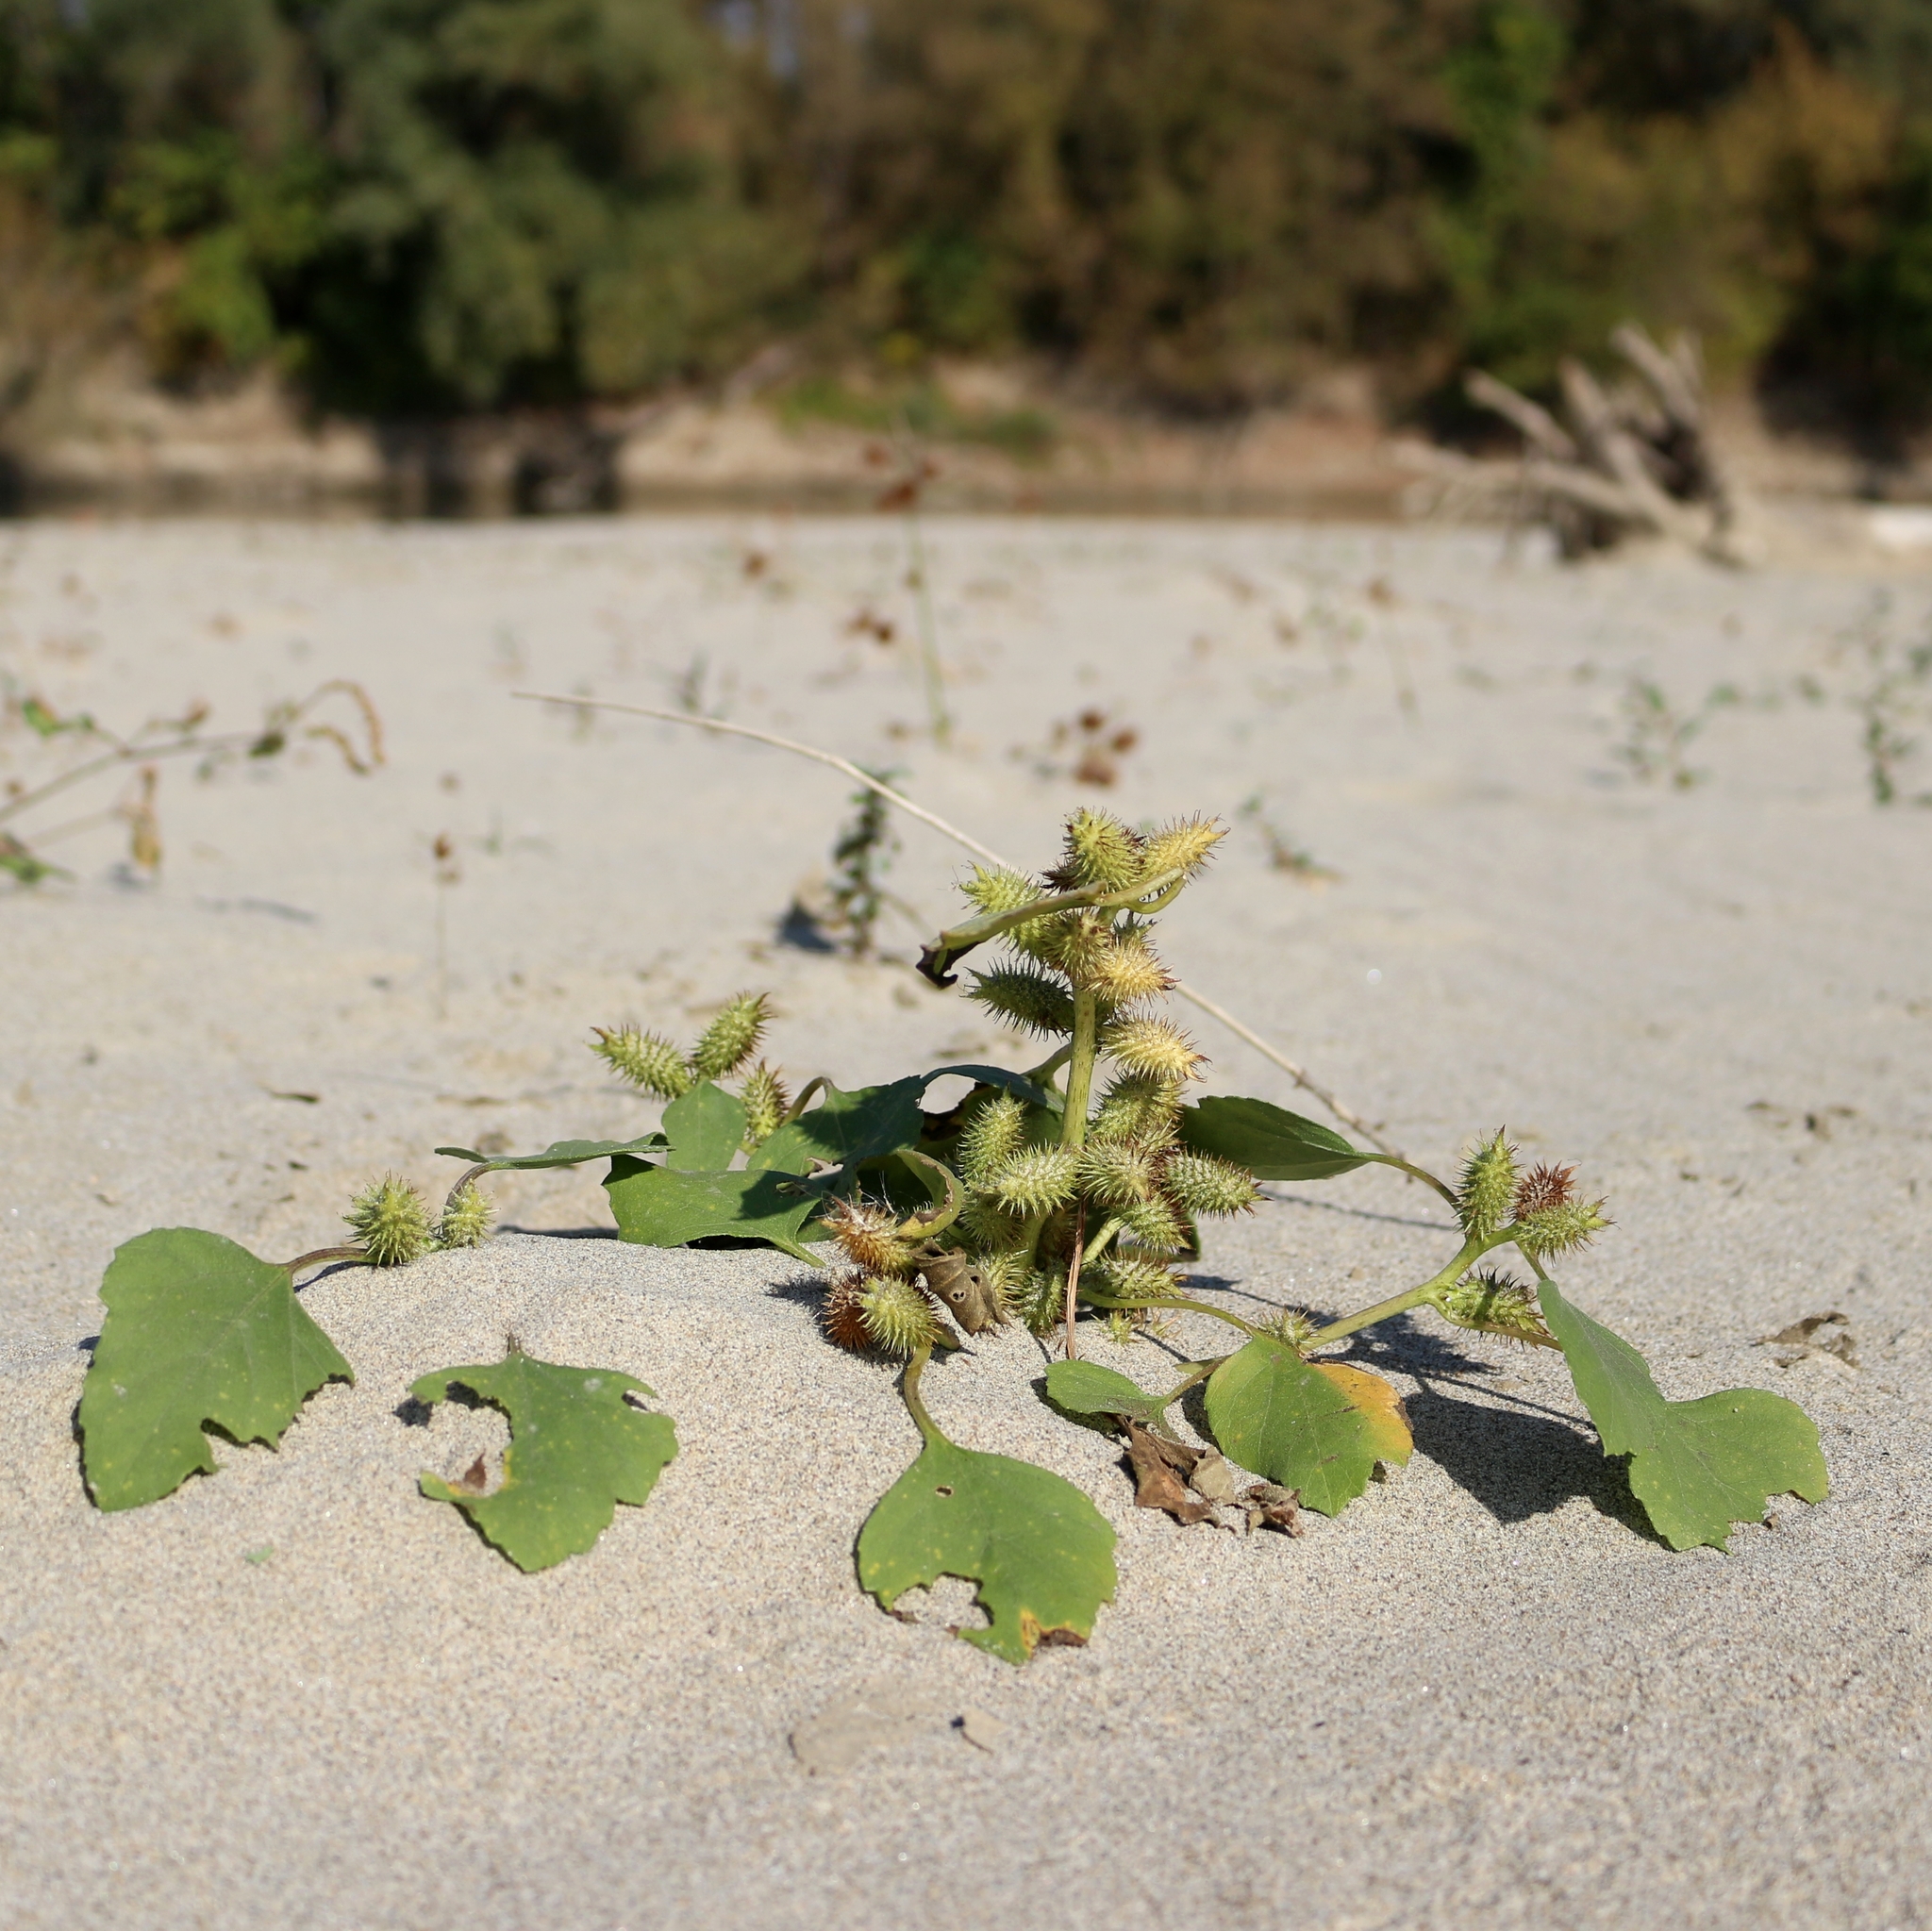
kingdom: Plantae
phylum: Tracheophyta
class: Magnoliopsida
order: Asterales
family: Asteraceae
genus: Xanthium
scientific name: Xanthium orientale
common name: Californian burr
